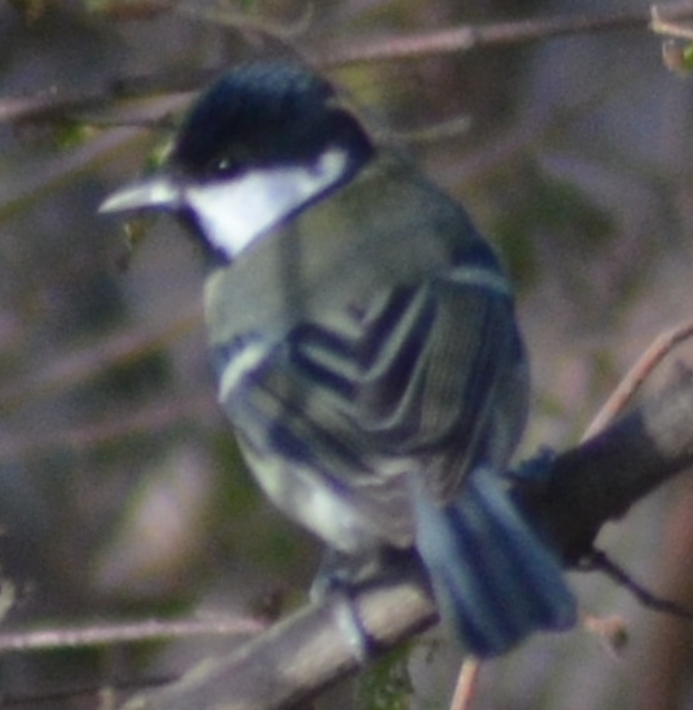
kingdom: Animalia
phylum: Chordata
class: Aves
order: Passeriformes
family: Paridae
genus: Parus
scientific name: Parus major
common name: Great tit
